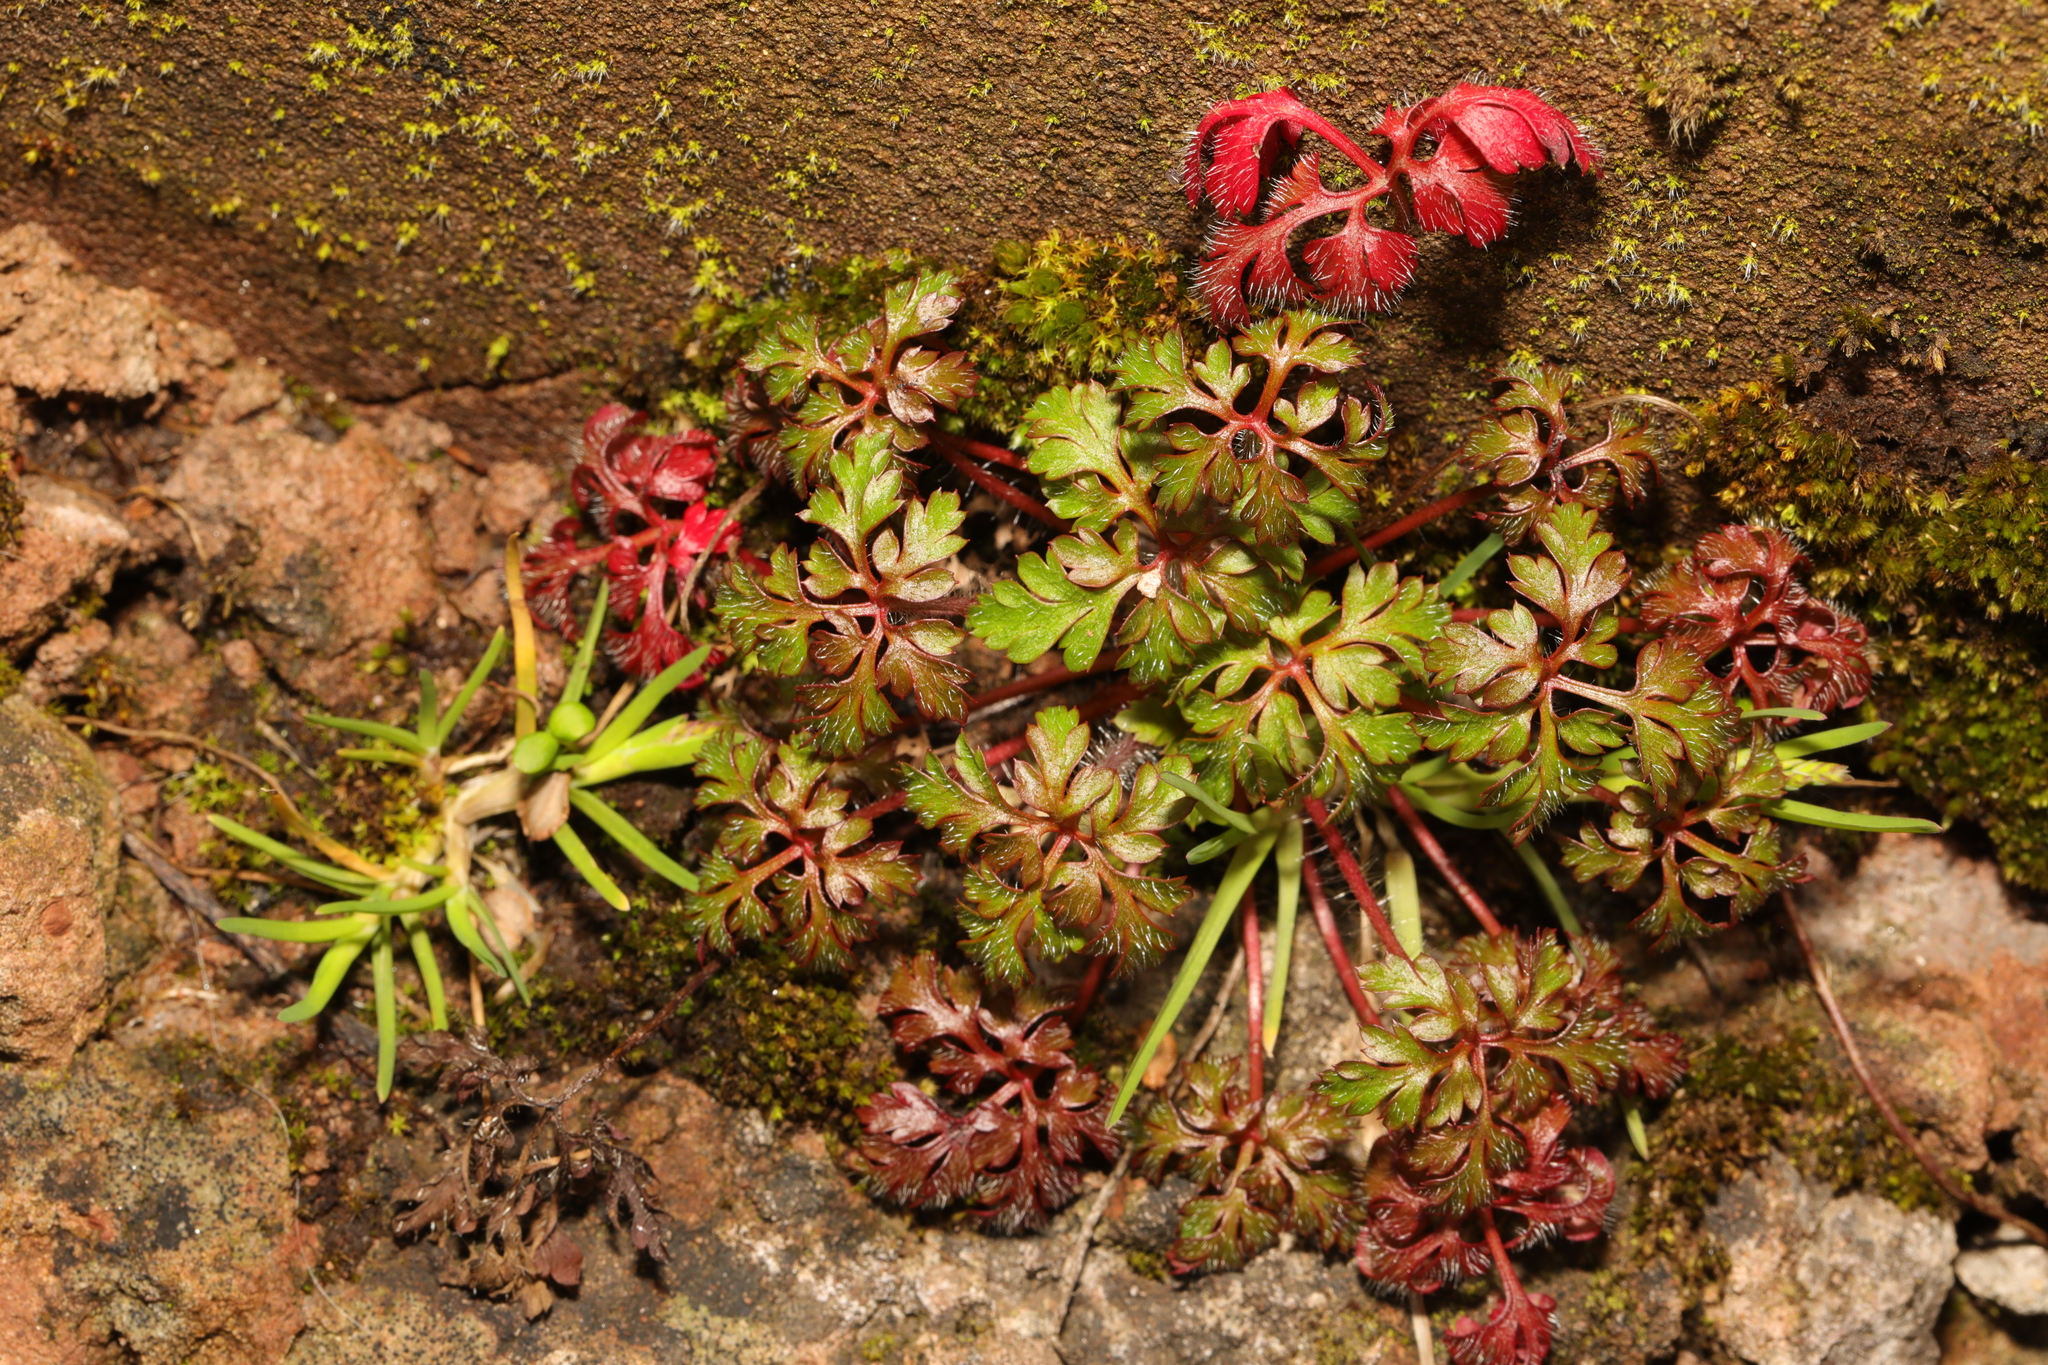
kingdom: Plantae
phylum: Tracheophyta
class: Magnoliopsida
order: Geraniales
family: Geraniaceae
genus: Geranium
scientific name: Geranium robertianum
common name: Herb-robert
